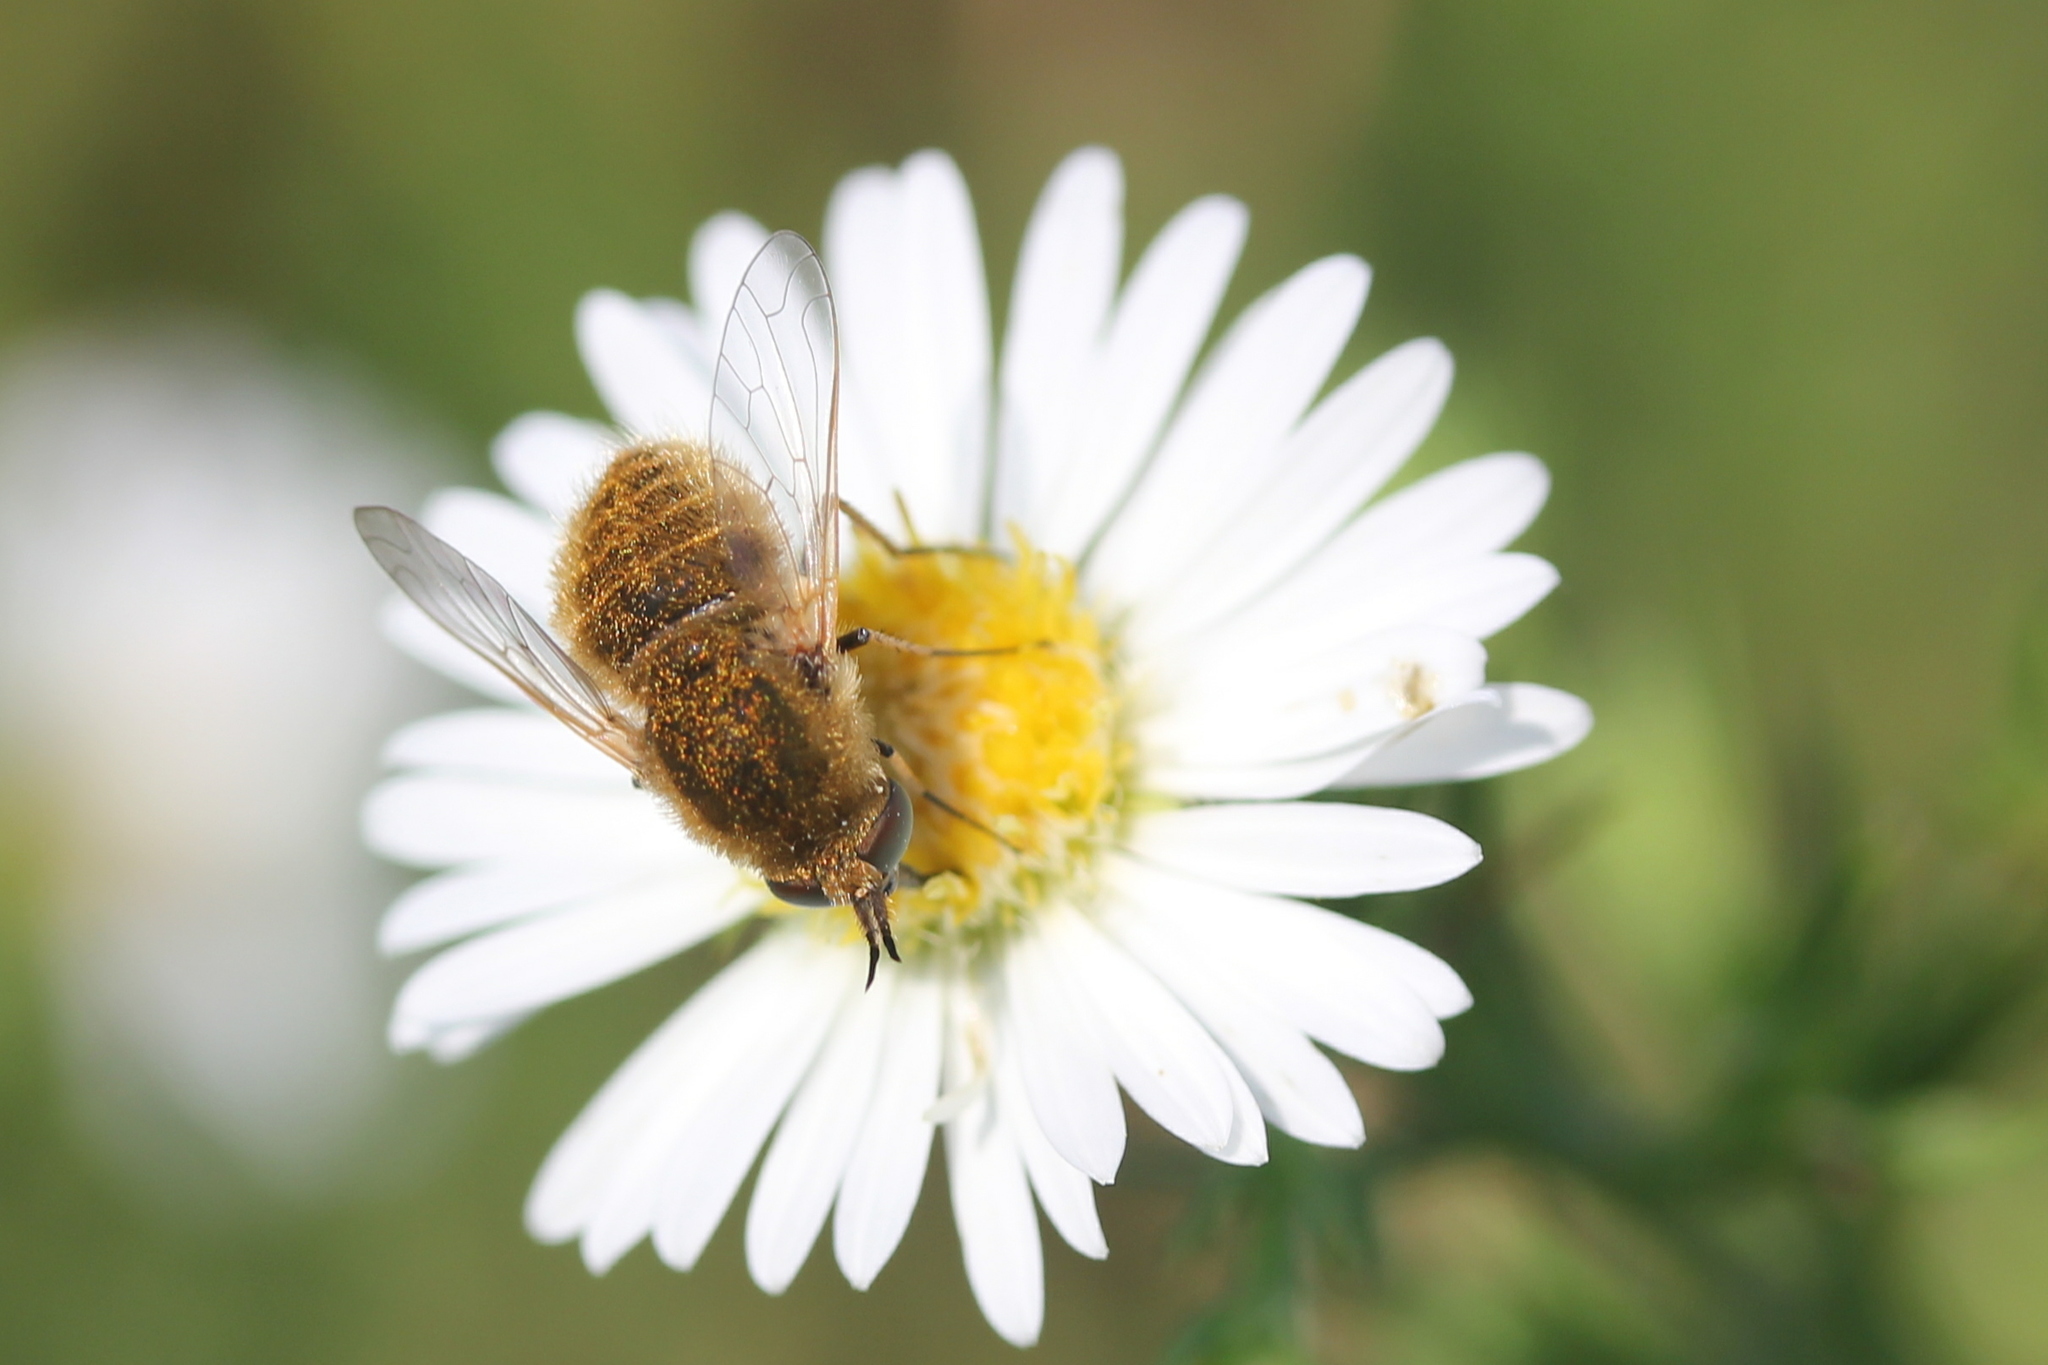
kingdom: Animalia
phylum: Arthropoda
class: Insecta
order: Diptera
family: Bombyliidae
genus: Sparnopolius
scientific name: Sparnopolius confusus
